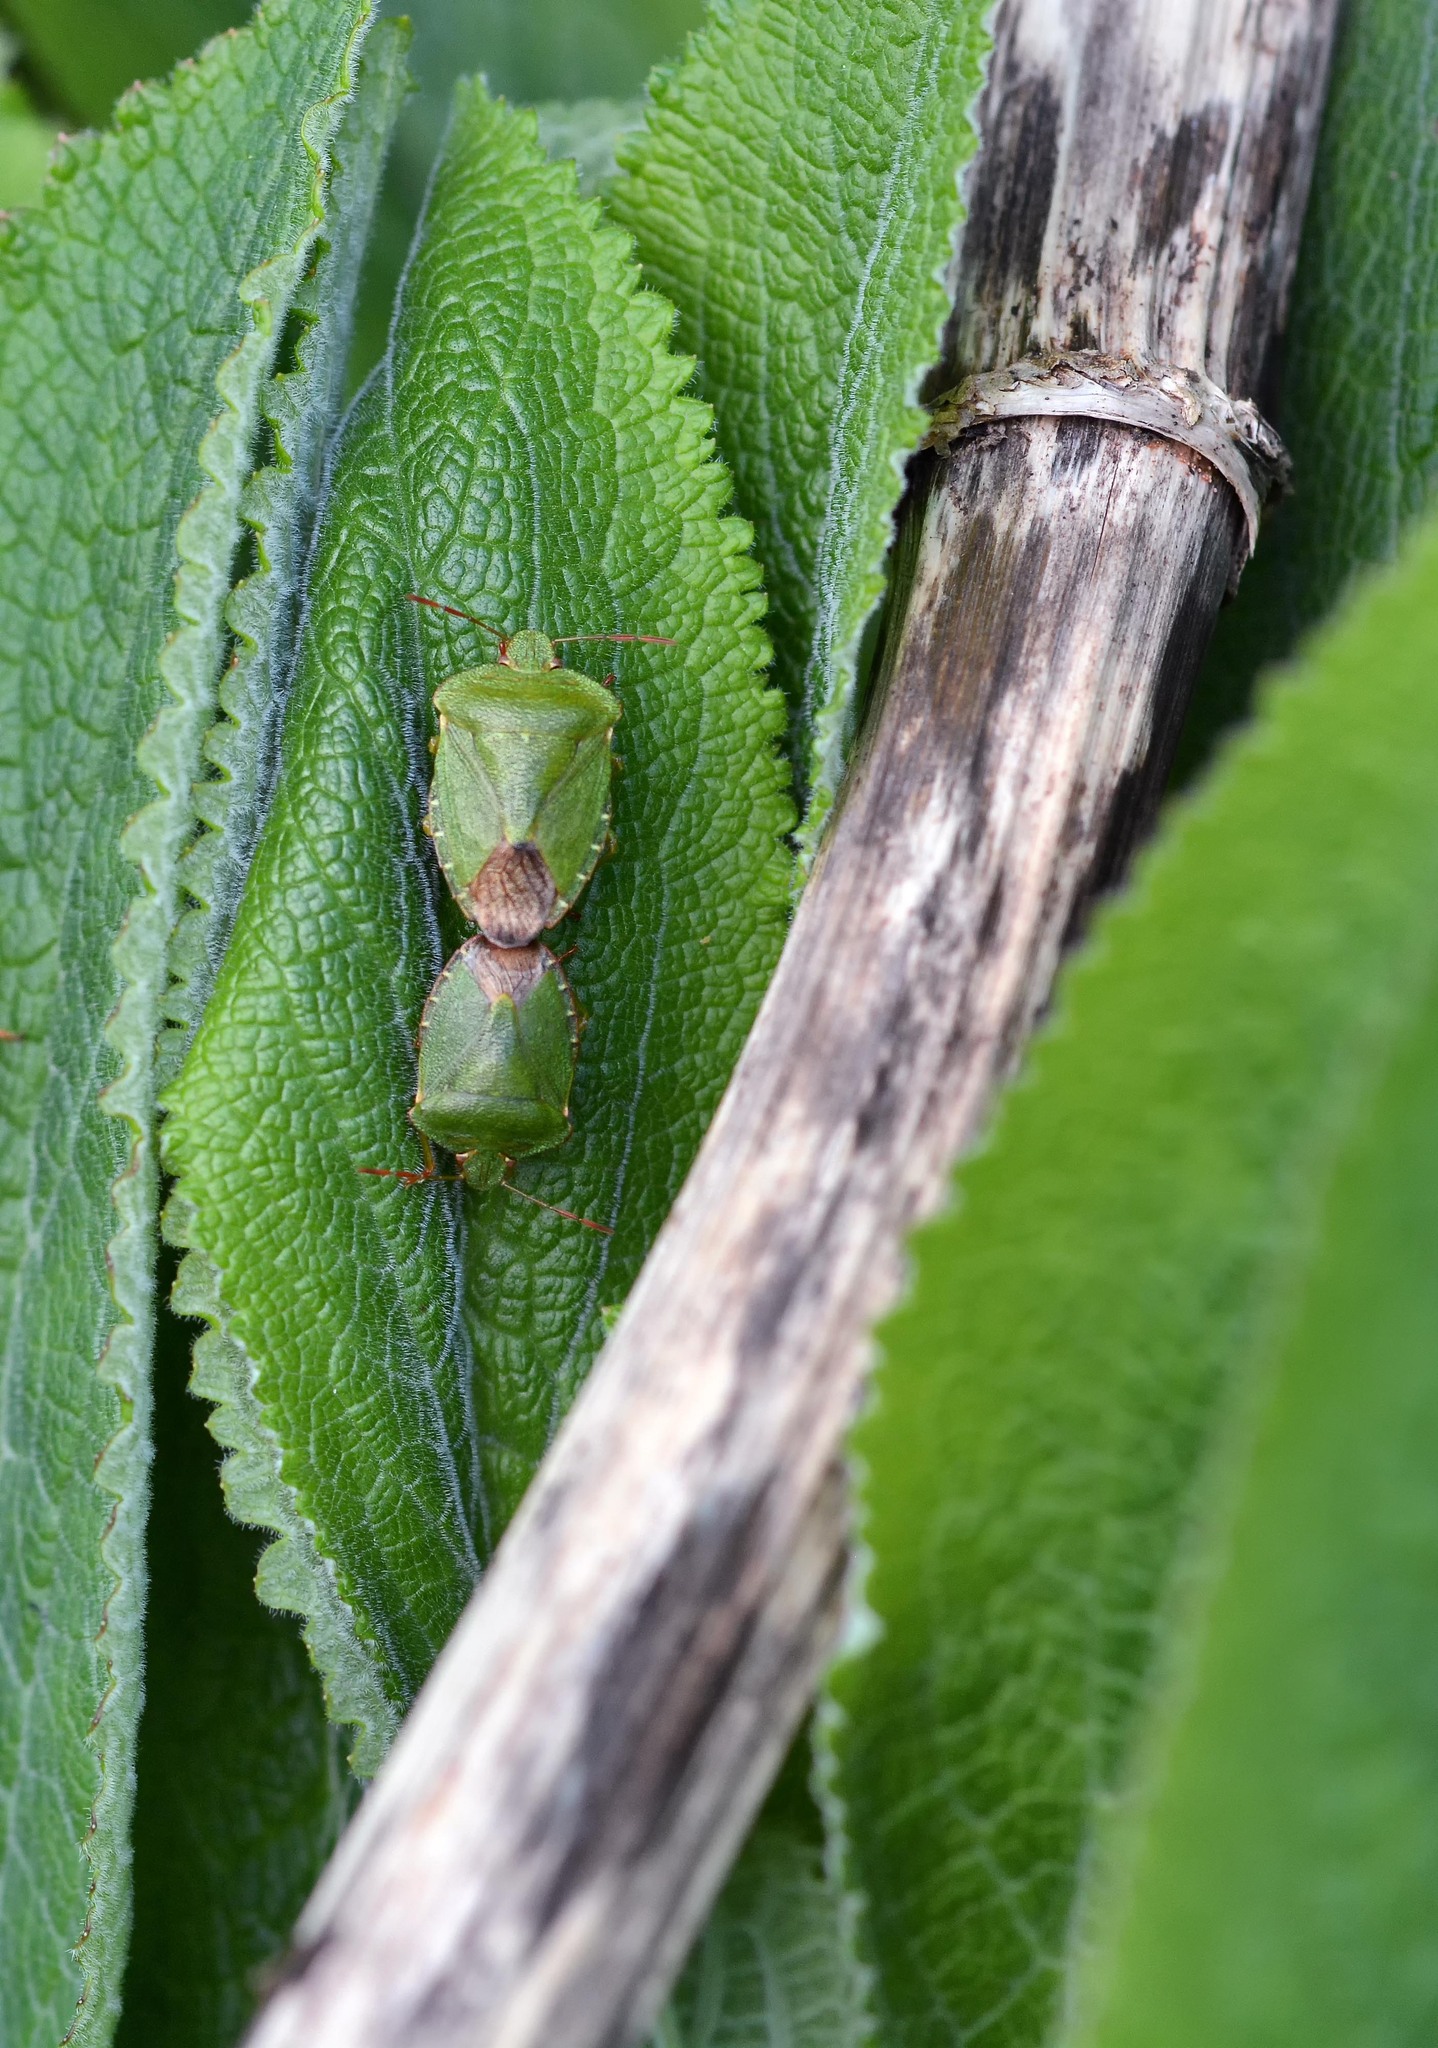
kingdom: Animalia
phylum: Arthropoda
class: Insecta
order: Hemiptera
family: Pentatomidae
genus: Palomena
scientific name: Palomena prasina
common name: Green shieldbug
